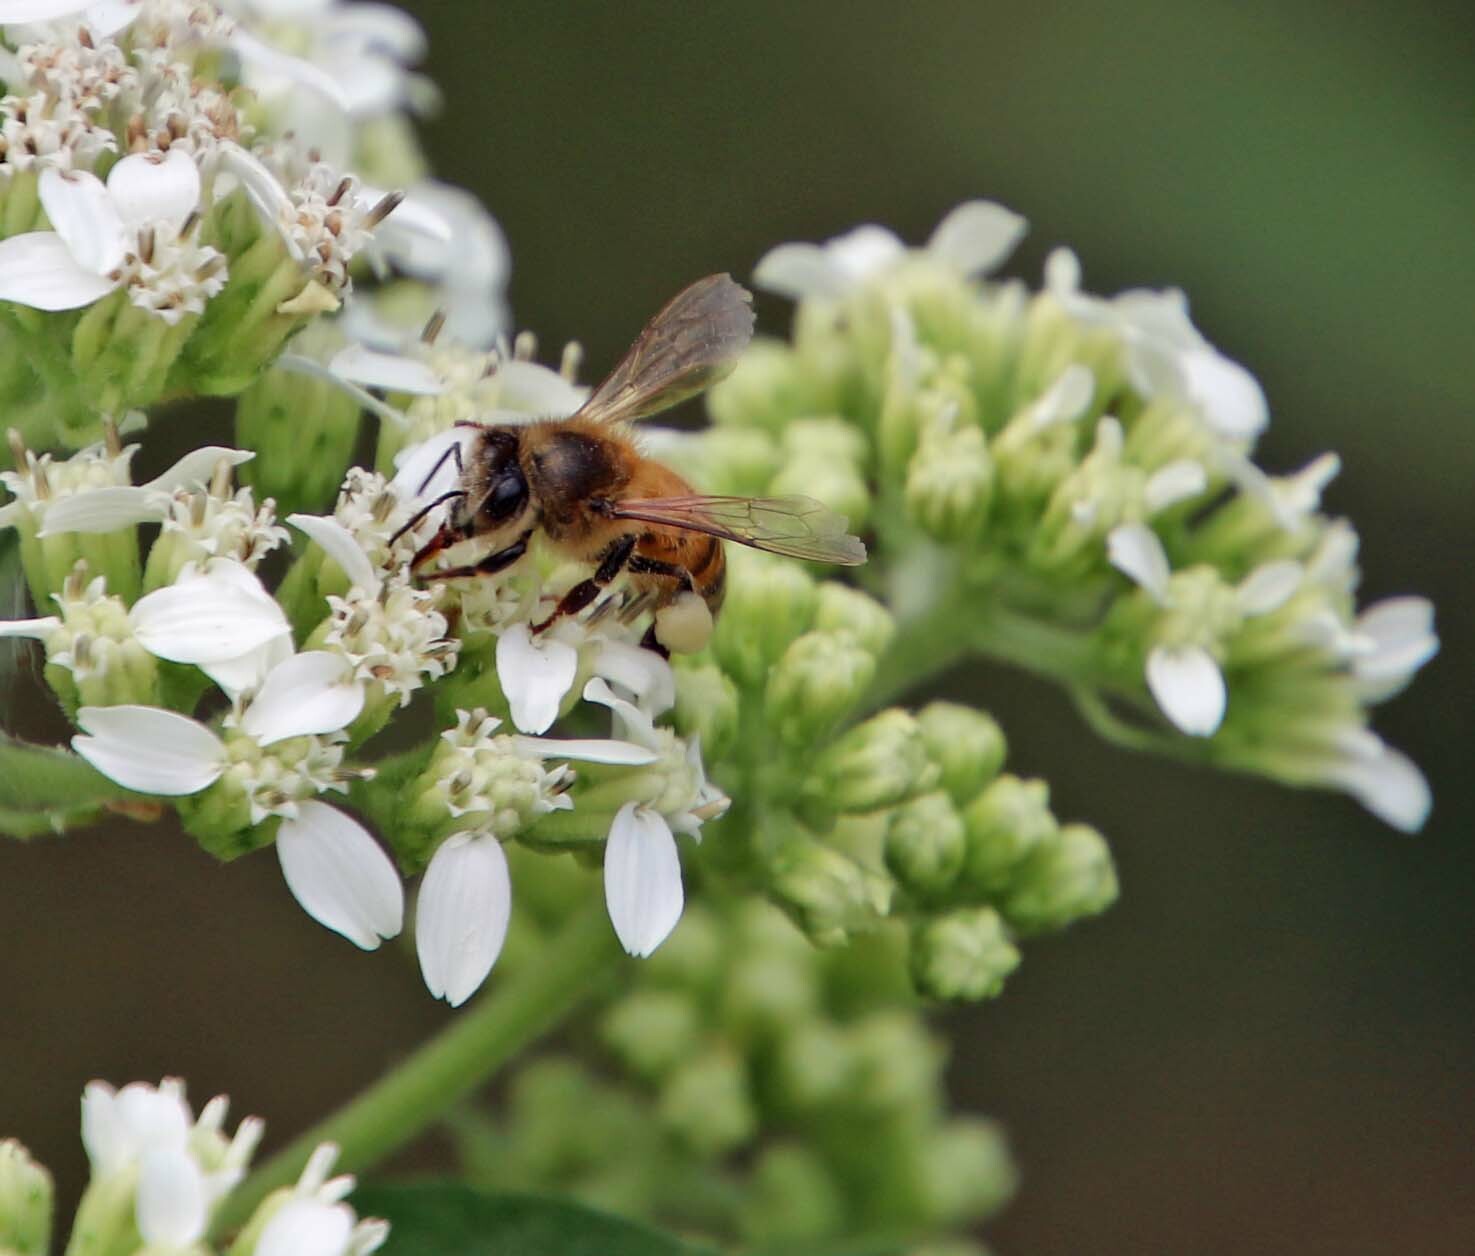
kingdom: Animalia
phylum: Arthropoda
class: Insecta
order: Hymenoptera
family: Apidae
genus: Apis
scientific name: Apis mellifera
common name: Honey bee
